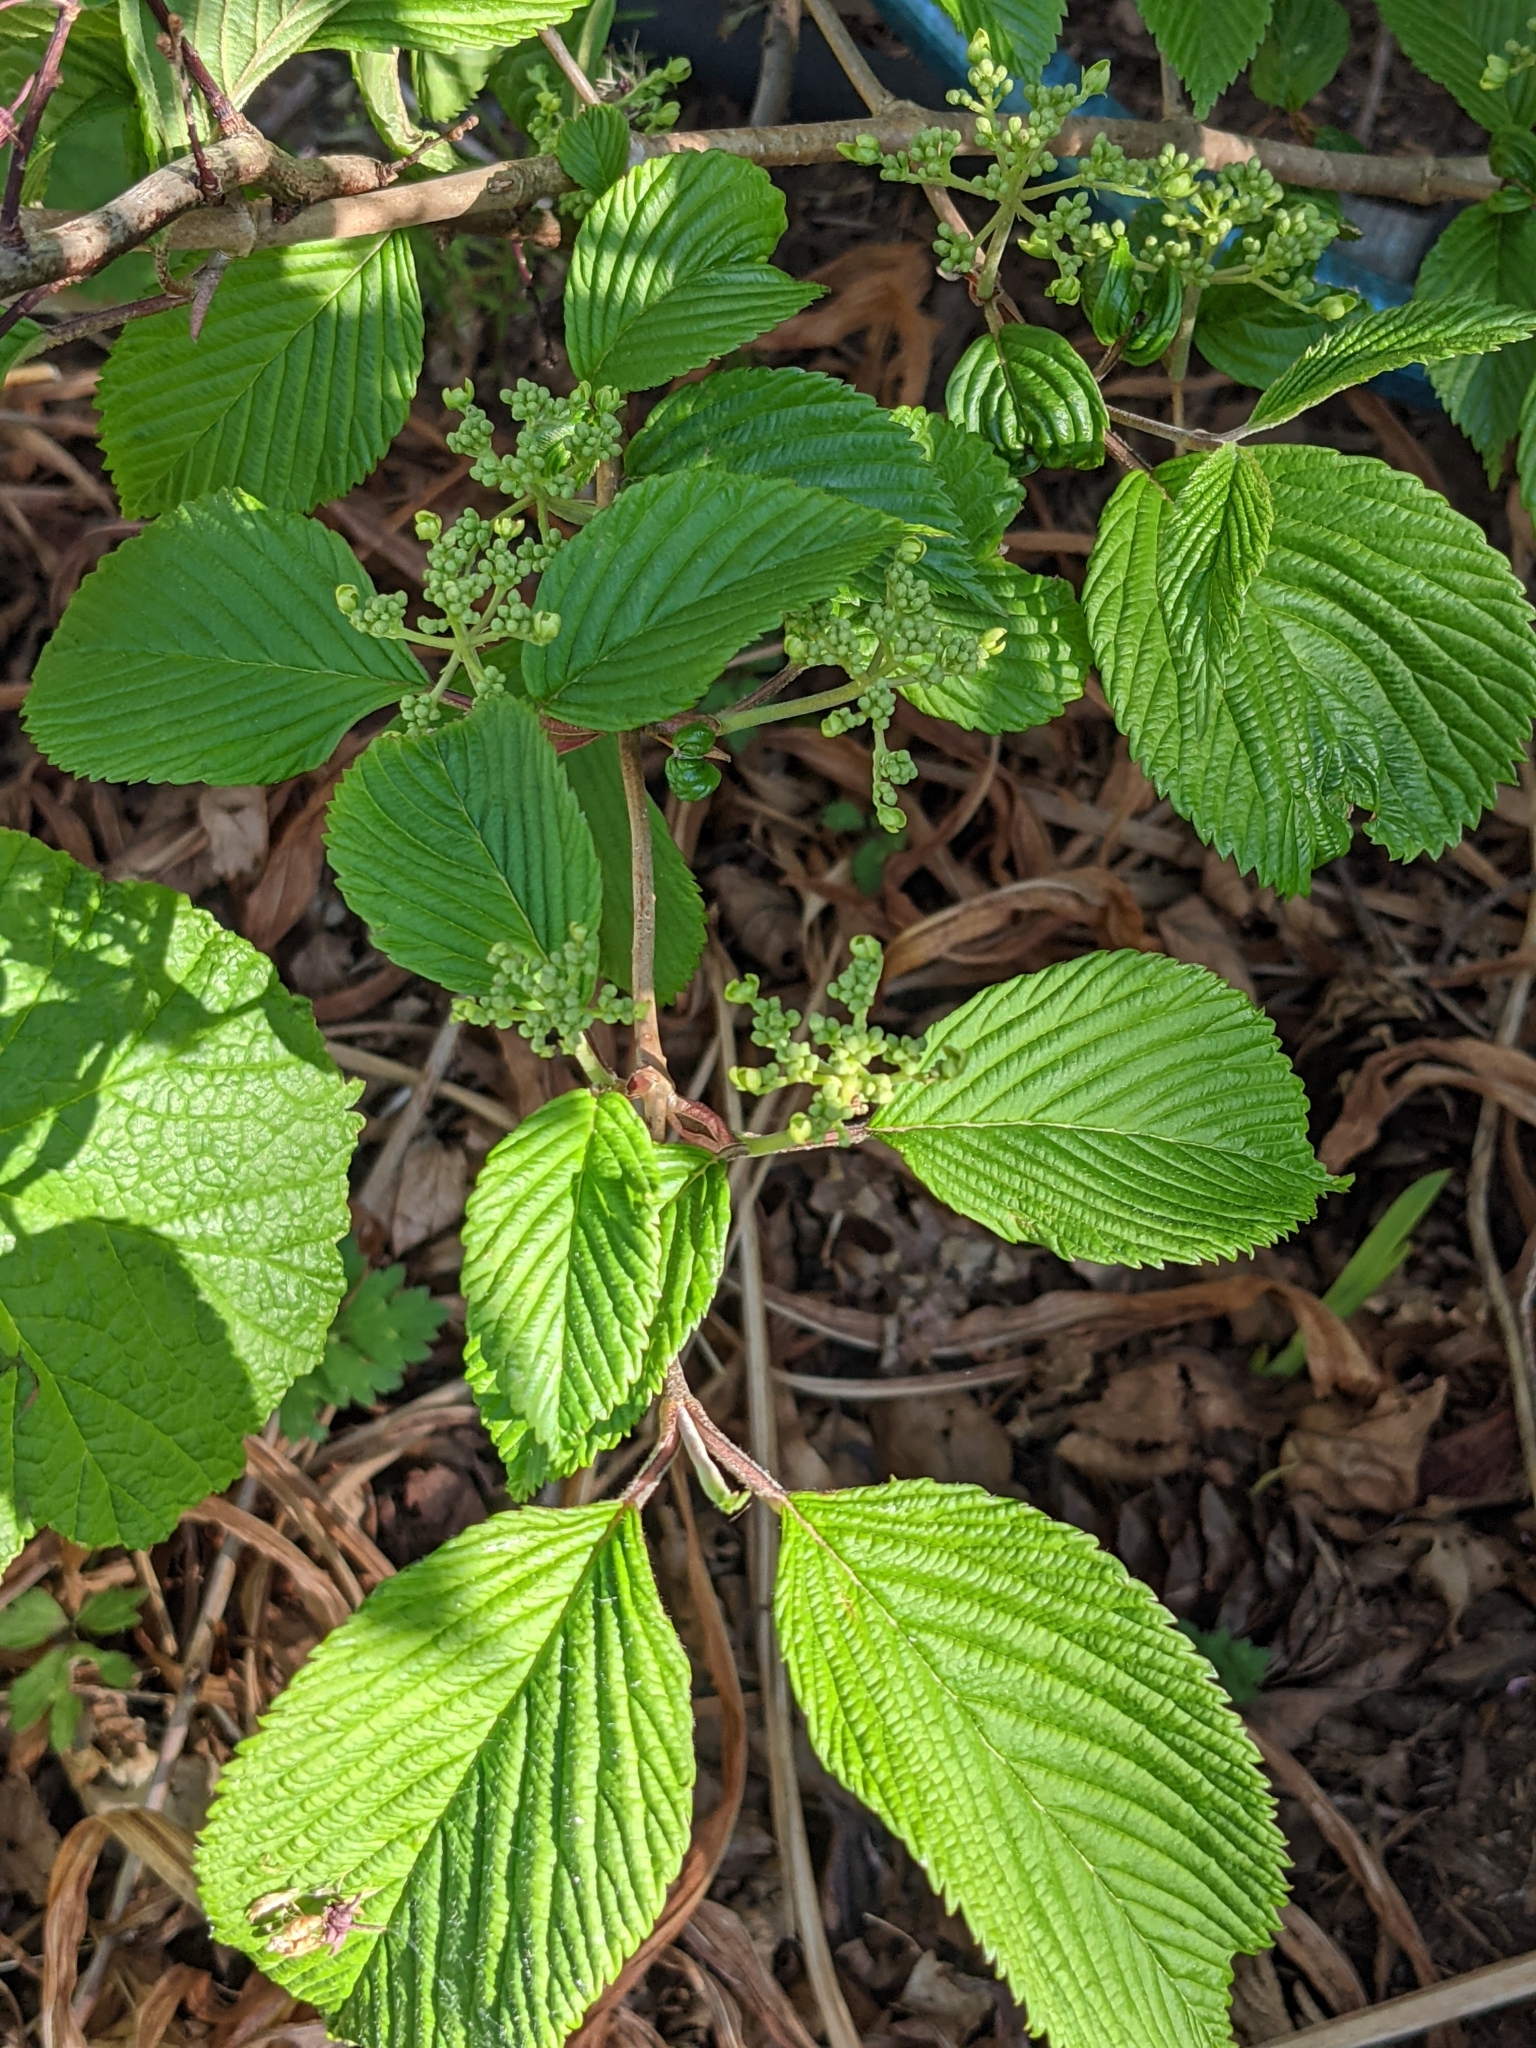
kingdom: Plantae
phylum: Tracheophyta
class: Magnoliopsida
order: Dipsacales
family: Viburnaceae
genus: Viburnum
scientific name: Viburnum plicatum
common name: Japanese snowball
